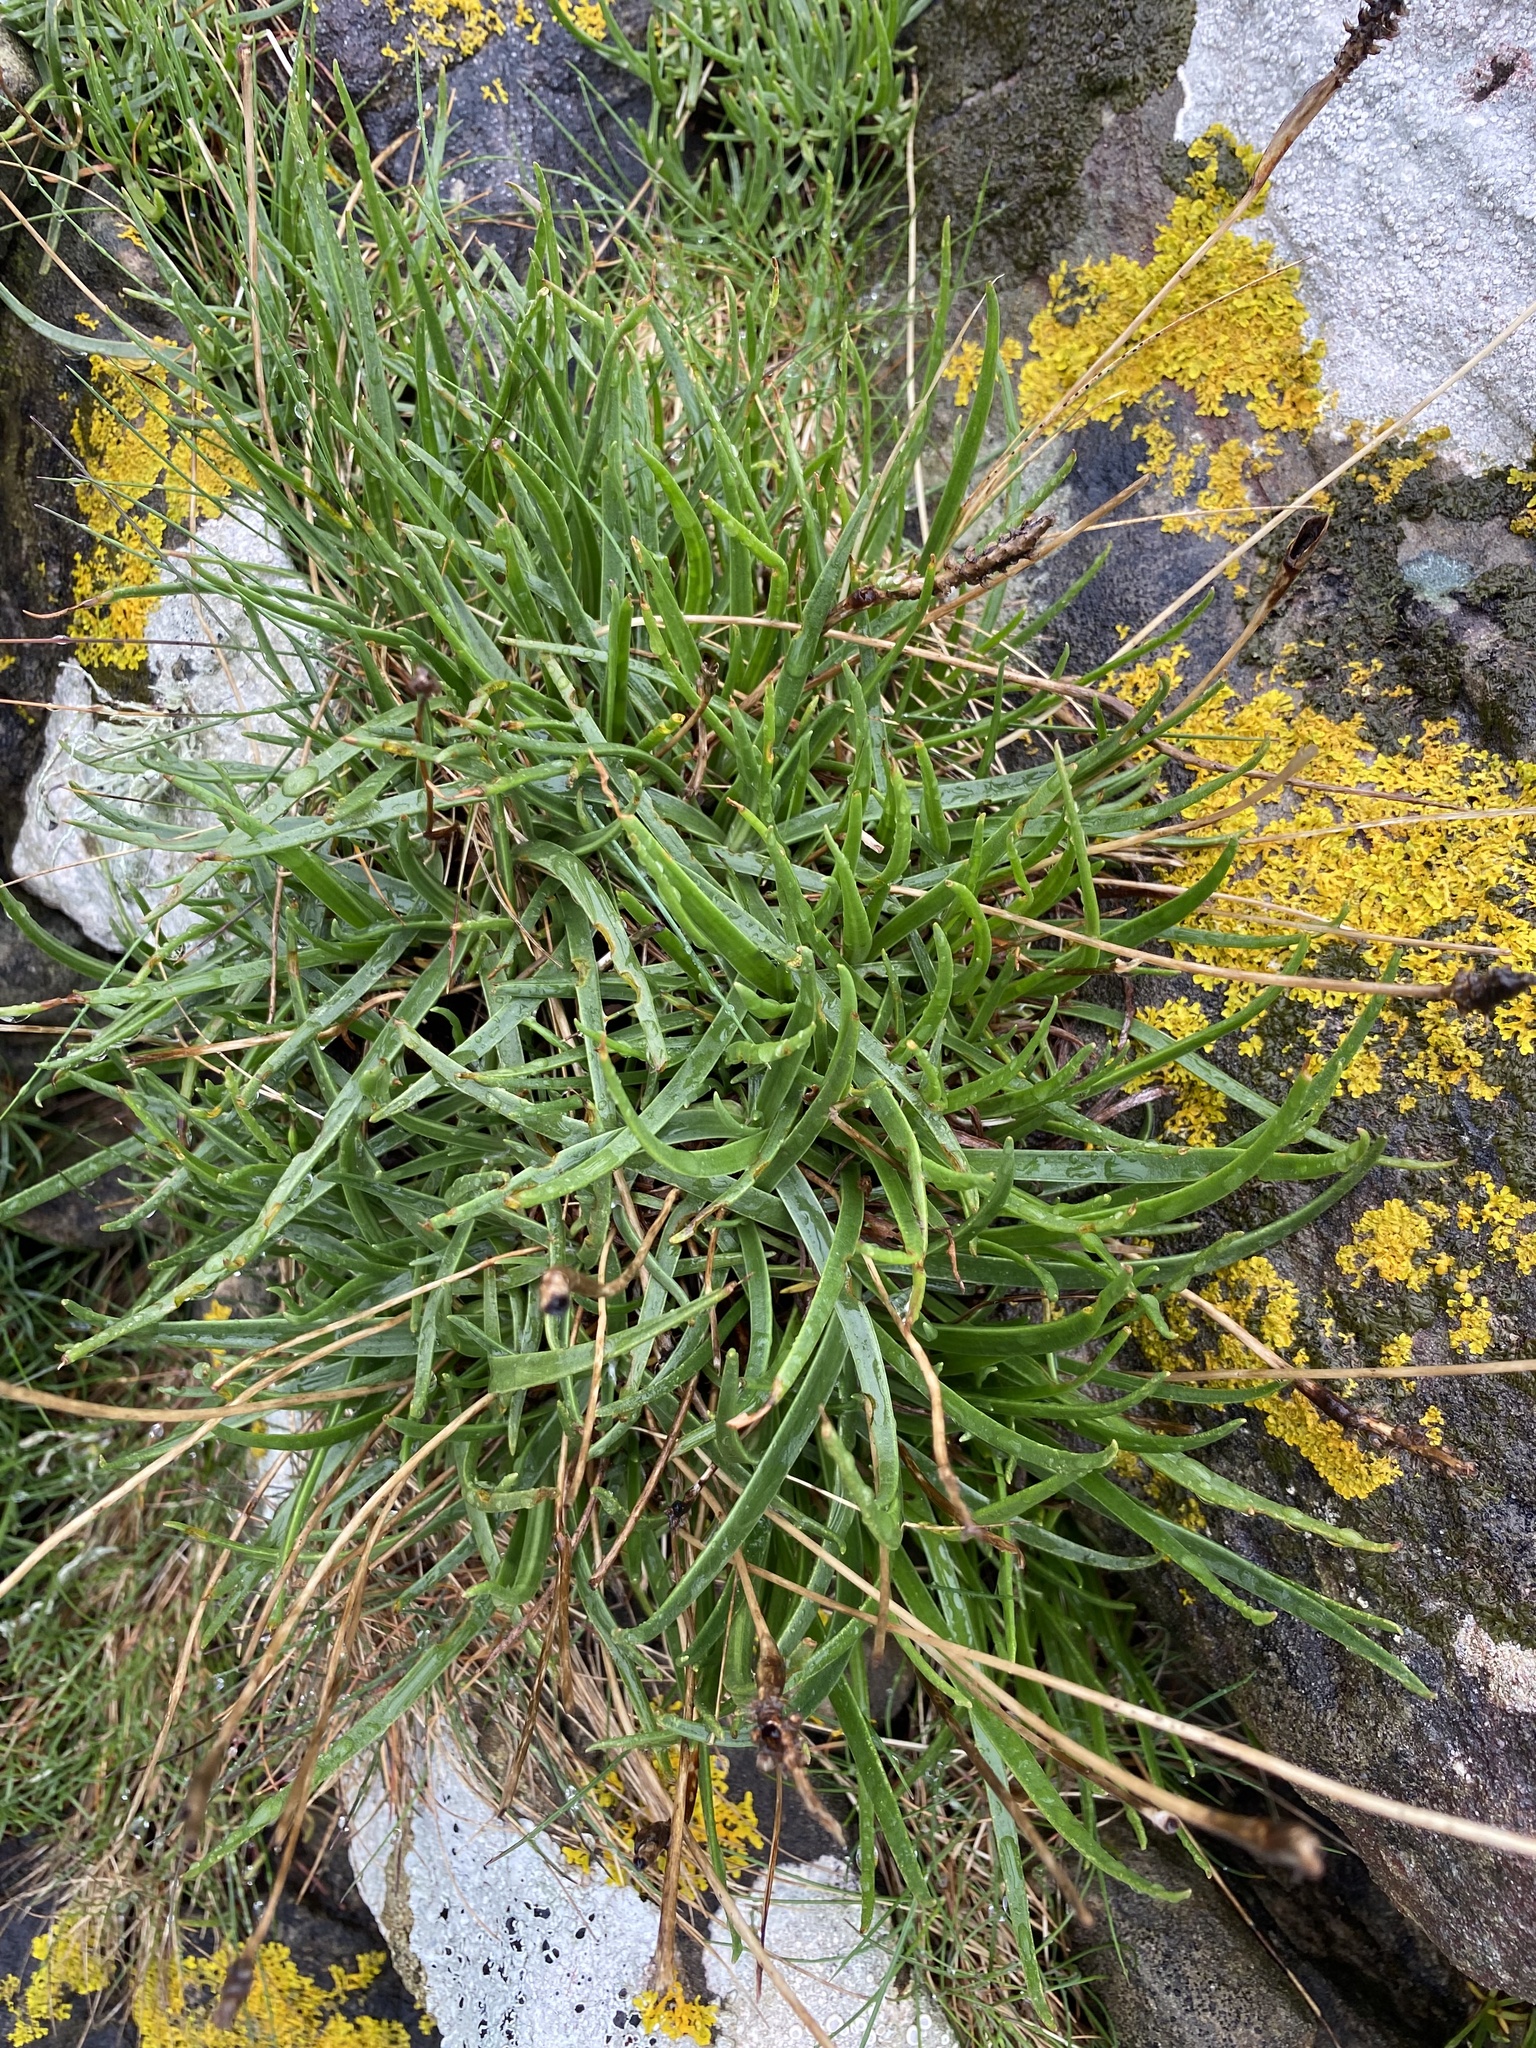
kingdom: Plantae
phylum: Tracheophyta
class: Magnoliopsida
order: Lamiales
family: Plantaginaceae
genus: Plantago
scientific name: Plantago maritima
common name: Sea plantain
